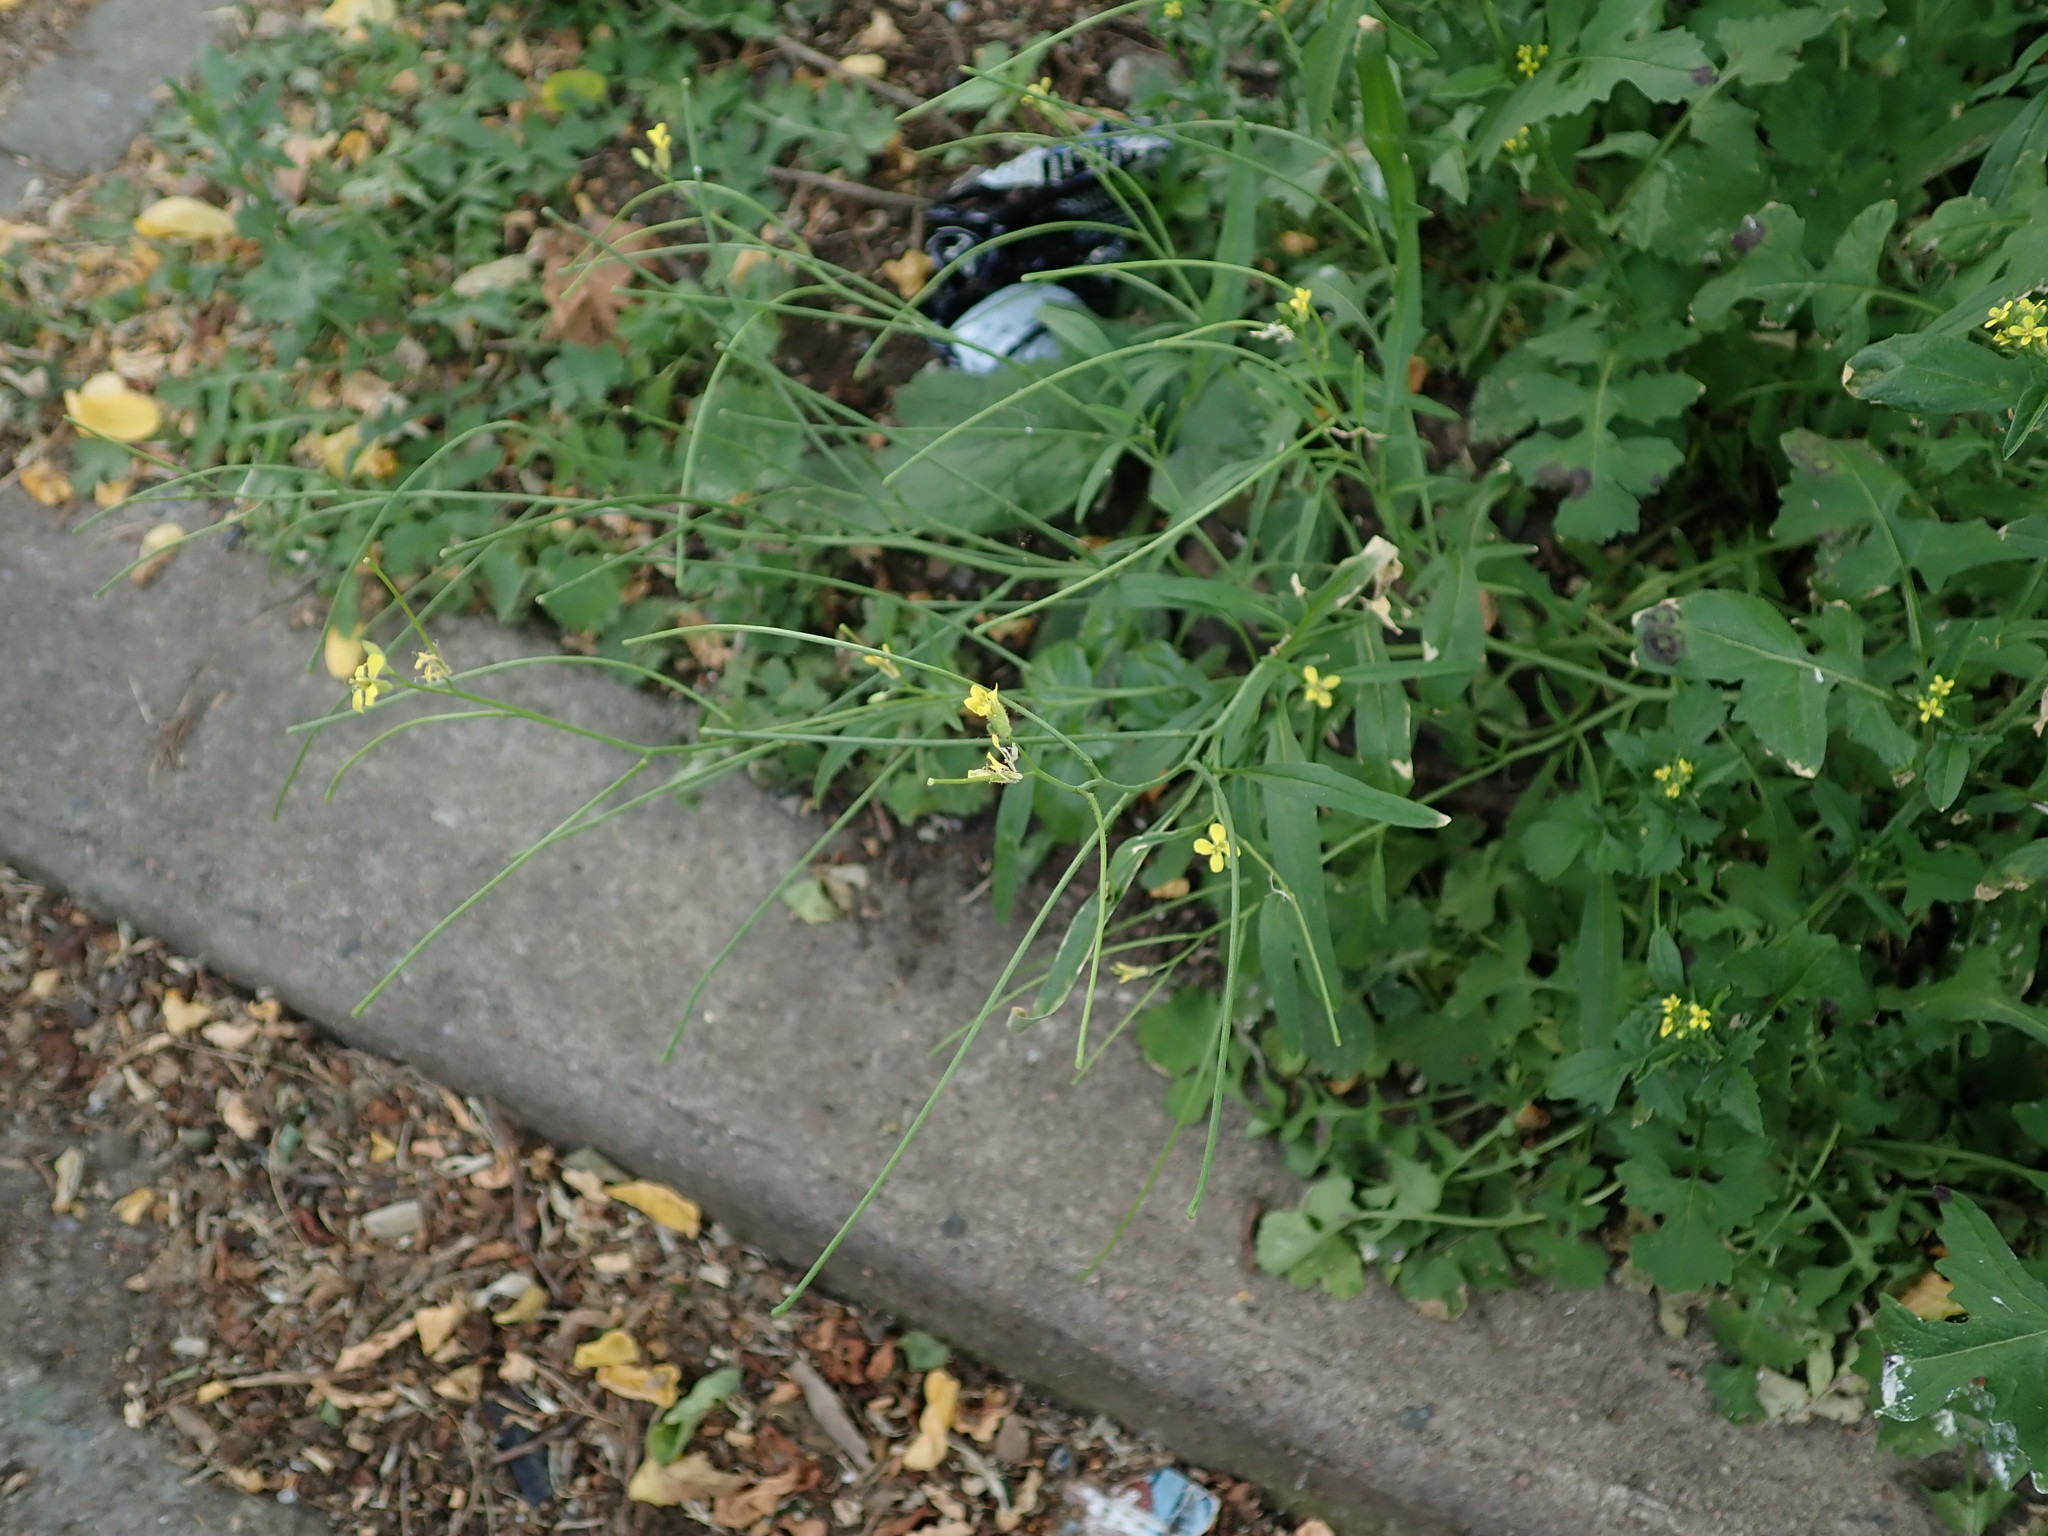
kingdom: Plantae
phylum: Tracheophyta
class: Magnoliopsida
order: Brassicales
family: Brassicaceae
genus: Sisymbrium
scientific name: Sisymbrium orientale
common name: Eastern rocket
